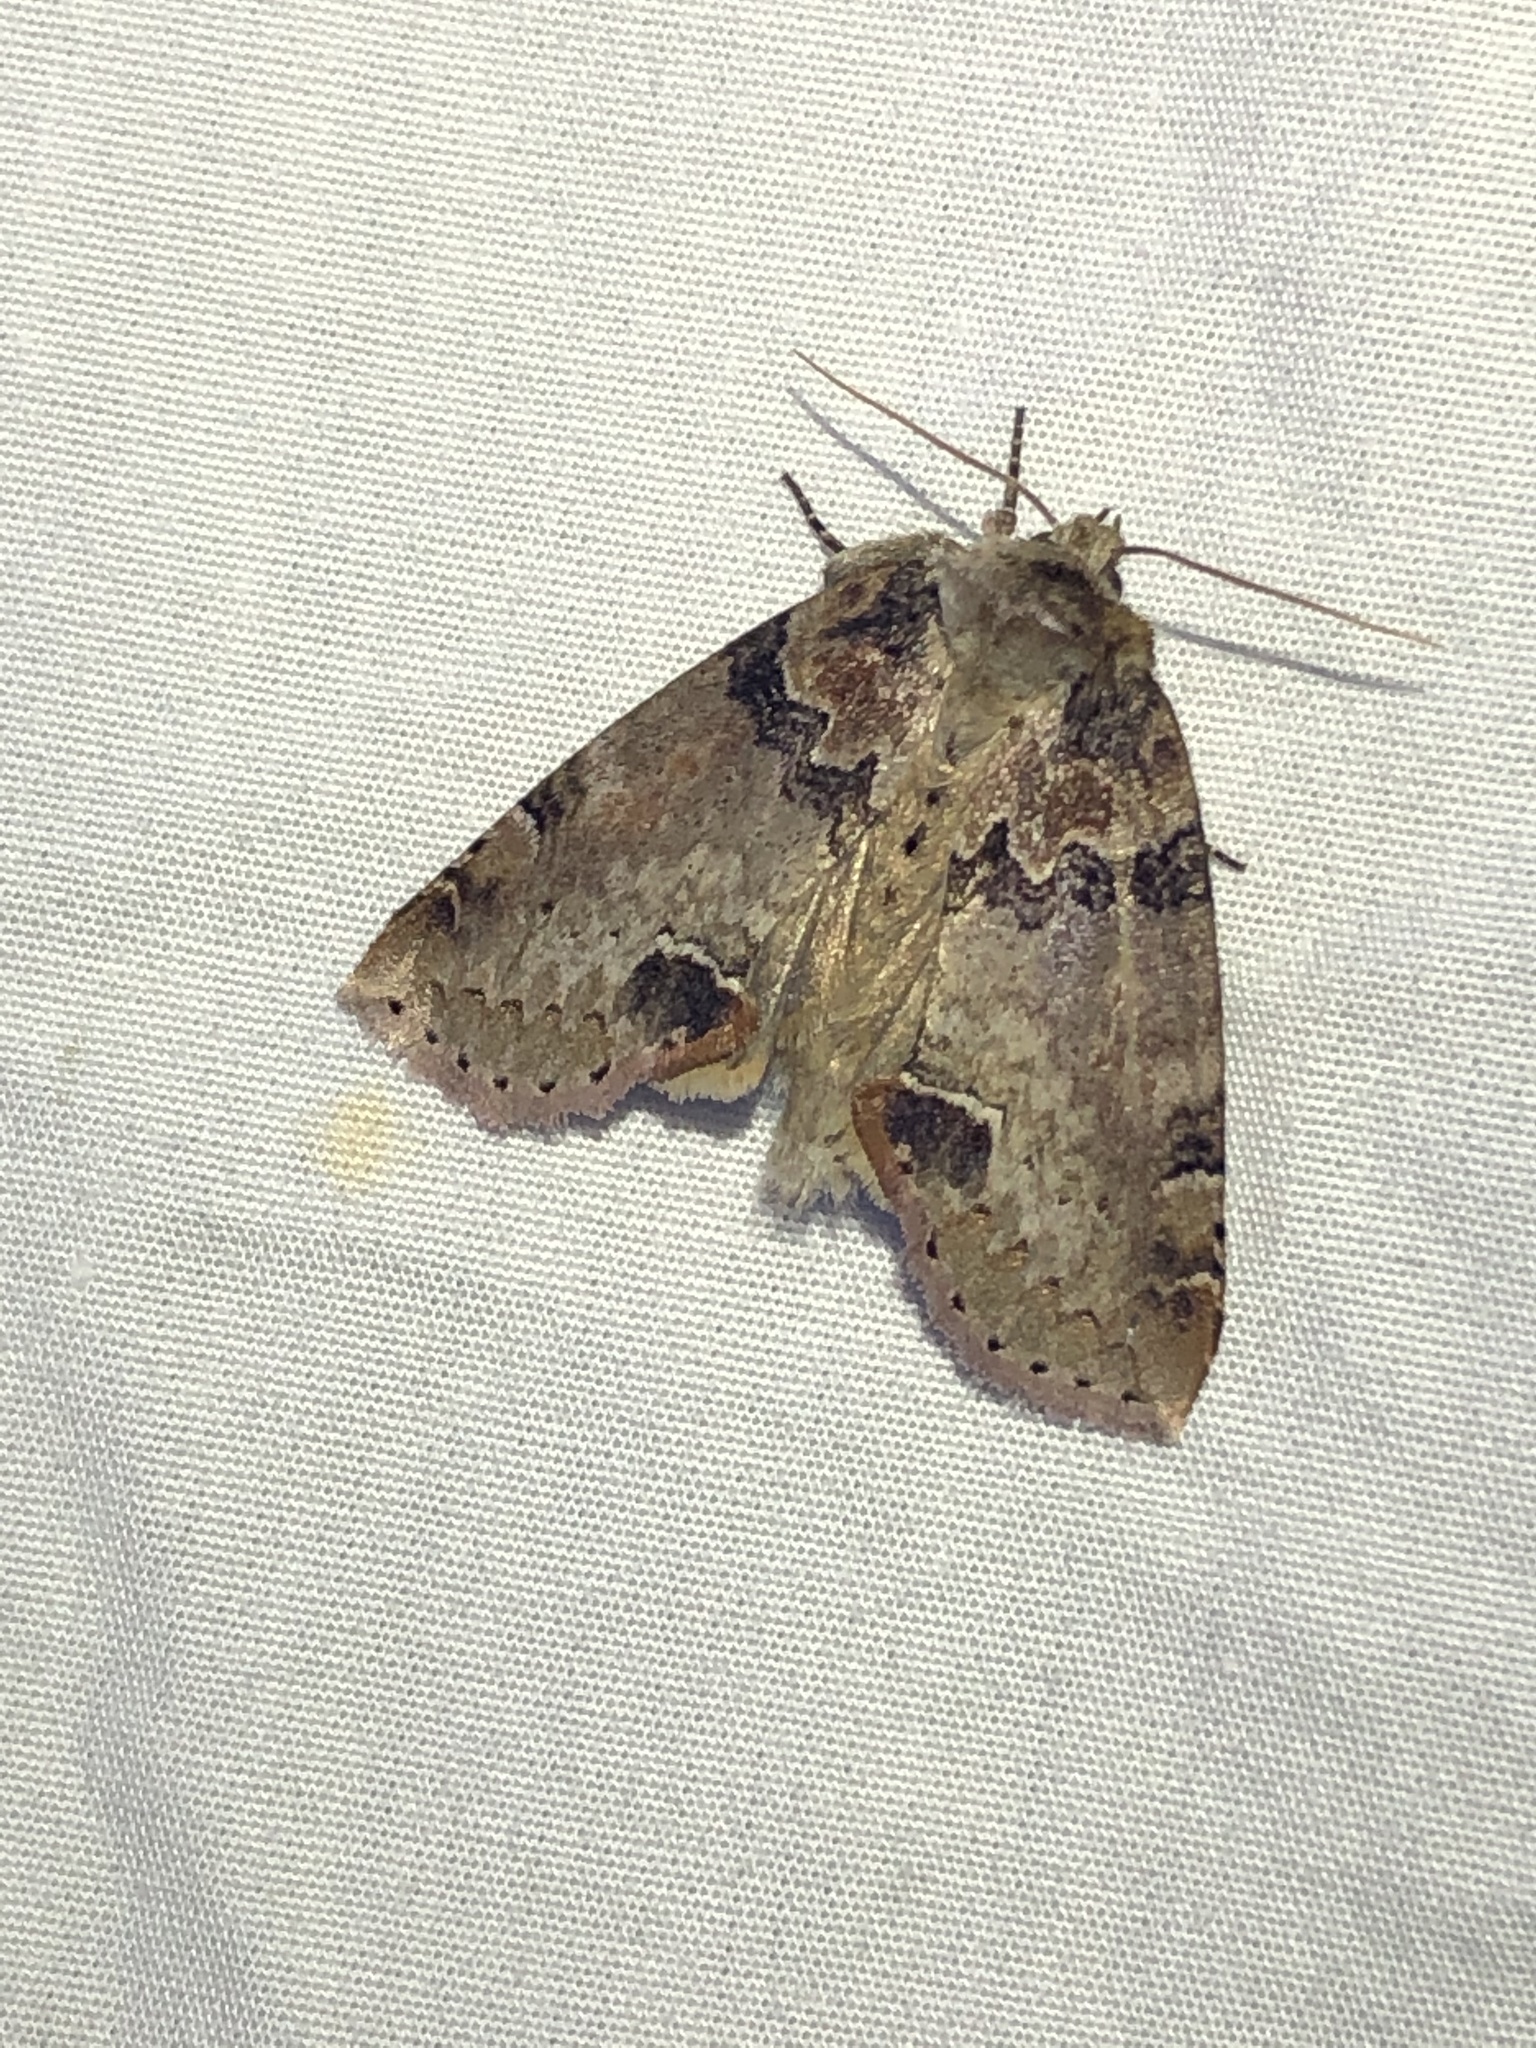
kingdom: Animalia
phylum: Arthropoda
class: Insecta
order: Lepidoptera
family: Drepanidae
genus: Pseudothyatira
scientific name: Pseudothyatira cymatophoroides
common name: Tufted thyatirid moth
